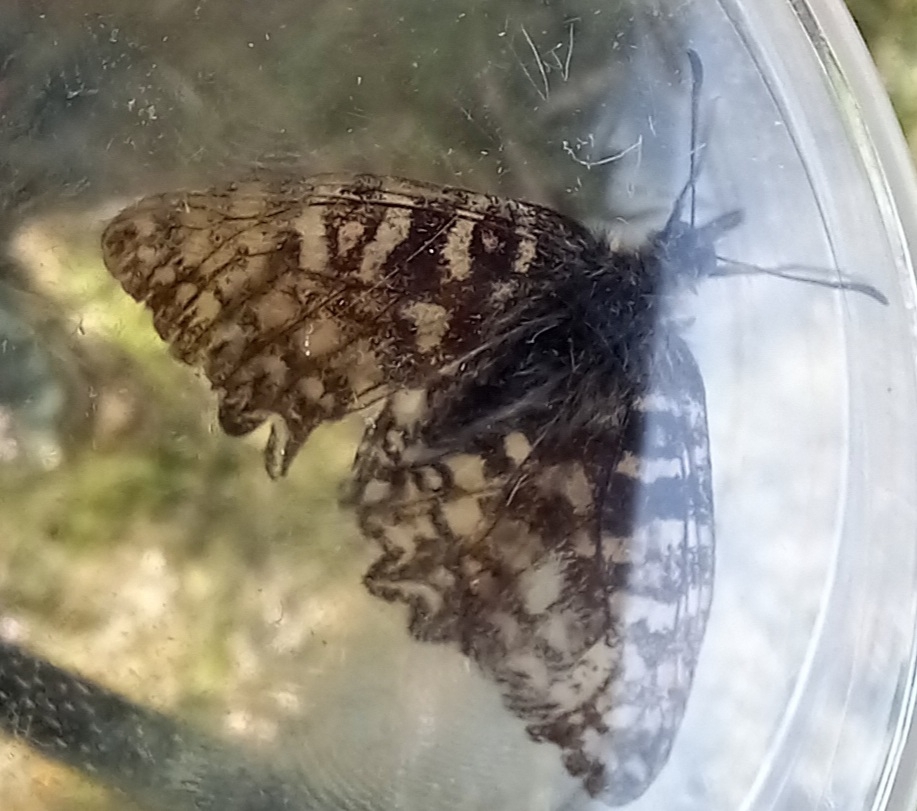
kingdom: Animalia
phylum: Arthropoda
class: Insecta
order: Lepidoptera
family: Papilionidae
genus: Zerynthia
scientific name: Zerynthia rumina
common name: Spanish festoon
